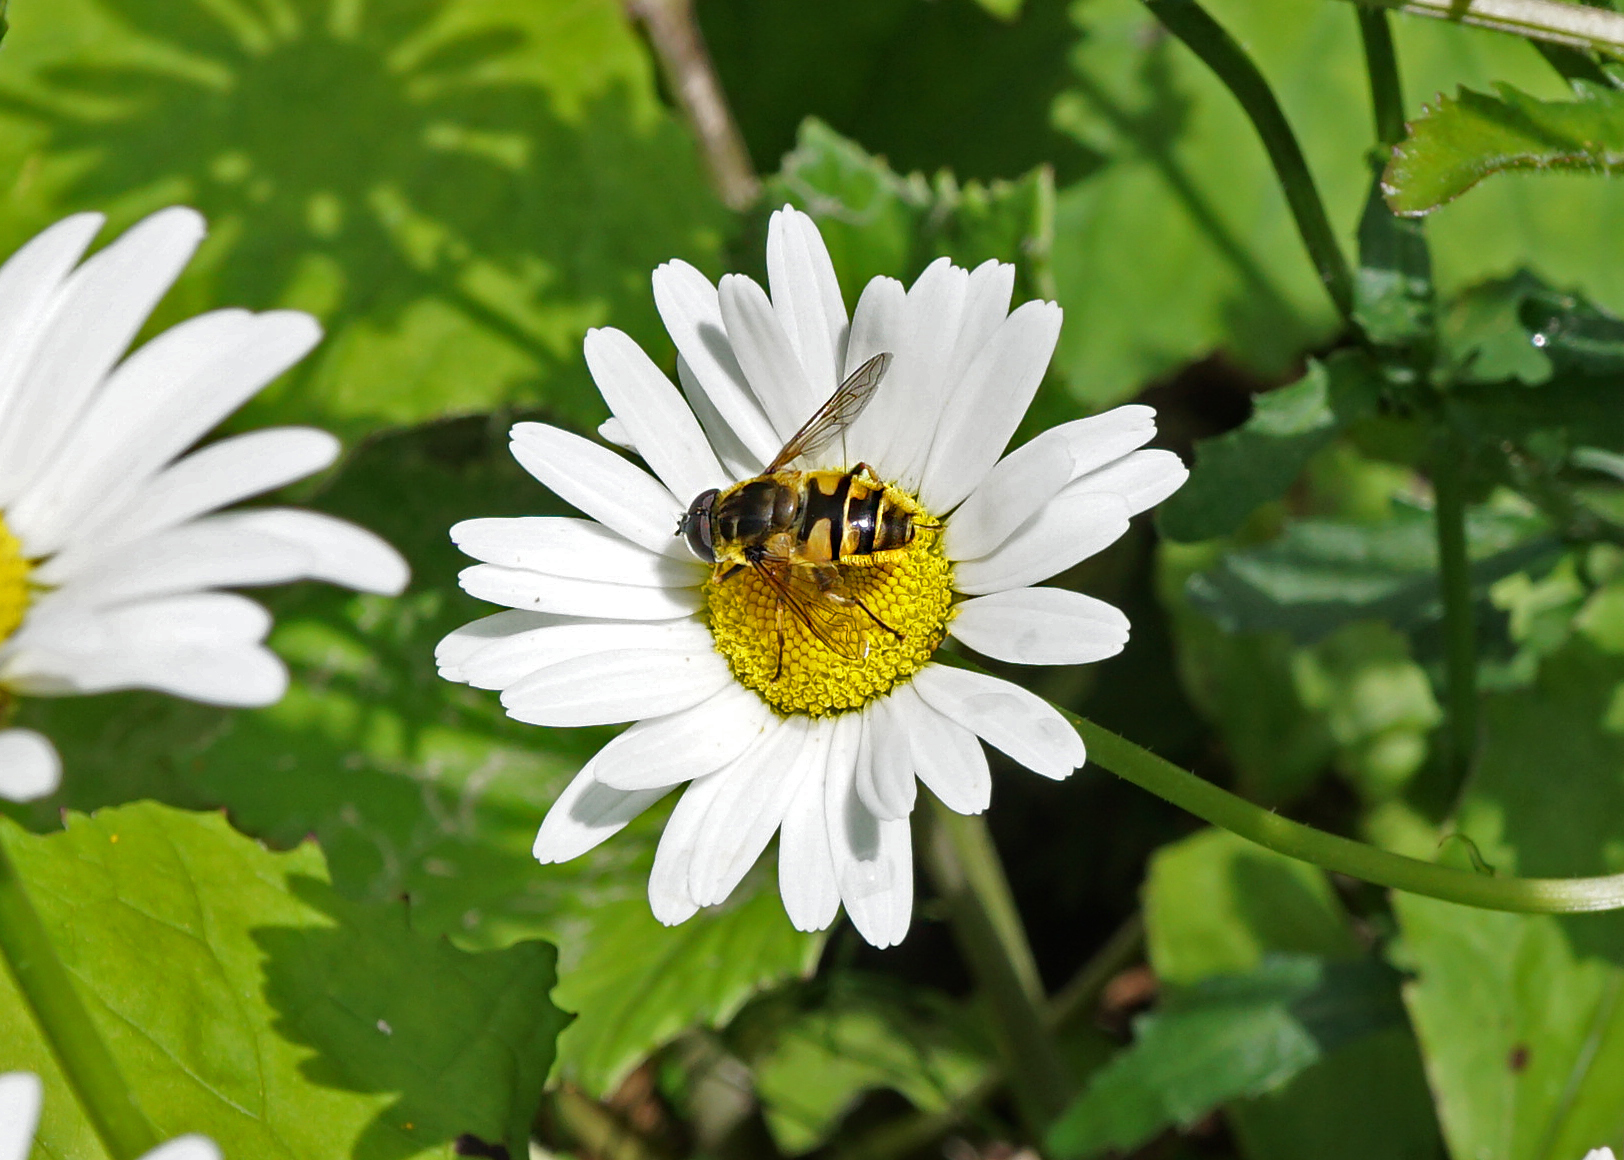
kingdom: Animalia
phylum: Arthropoda
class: Insecta
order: Diptera
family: Syrphidae
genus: Myathropa
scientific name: Myathropa florea
